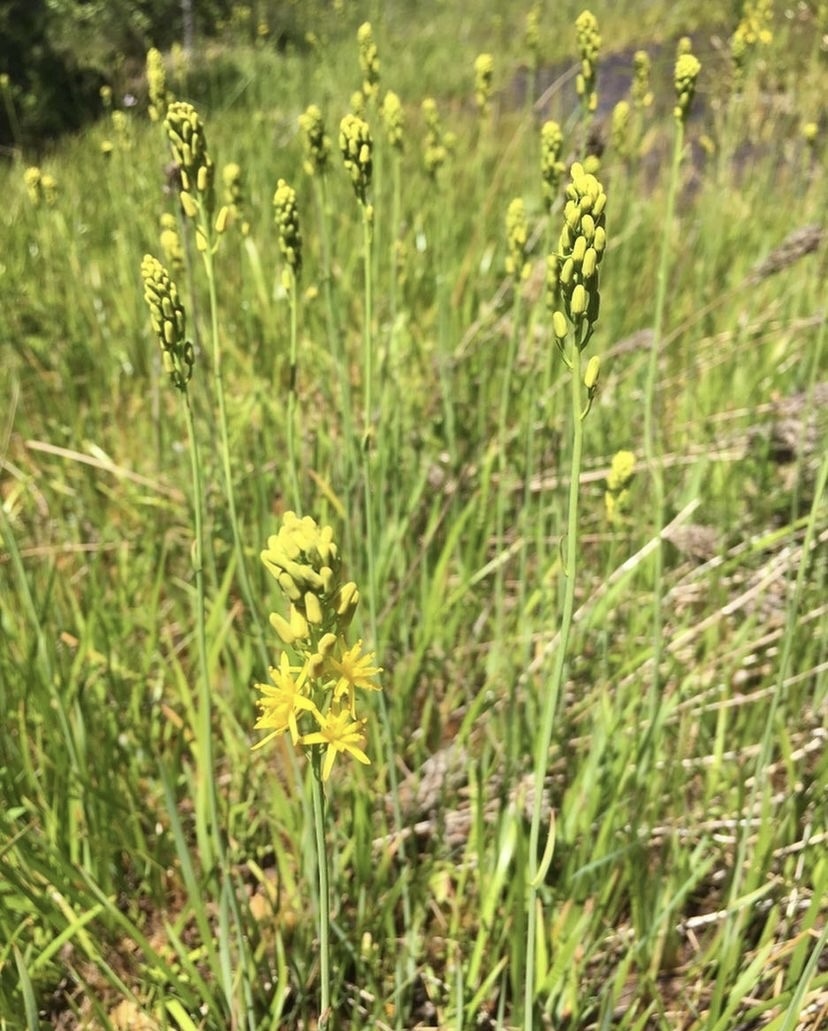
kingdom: Plantae
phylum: Tracheophyta
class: Liliopsida
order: Dioscoreales
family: Nartheciaceae
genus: Narthecium
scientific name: Narthecium americanum
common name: Bog-asphodel
